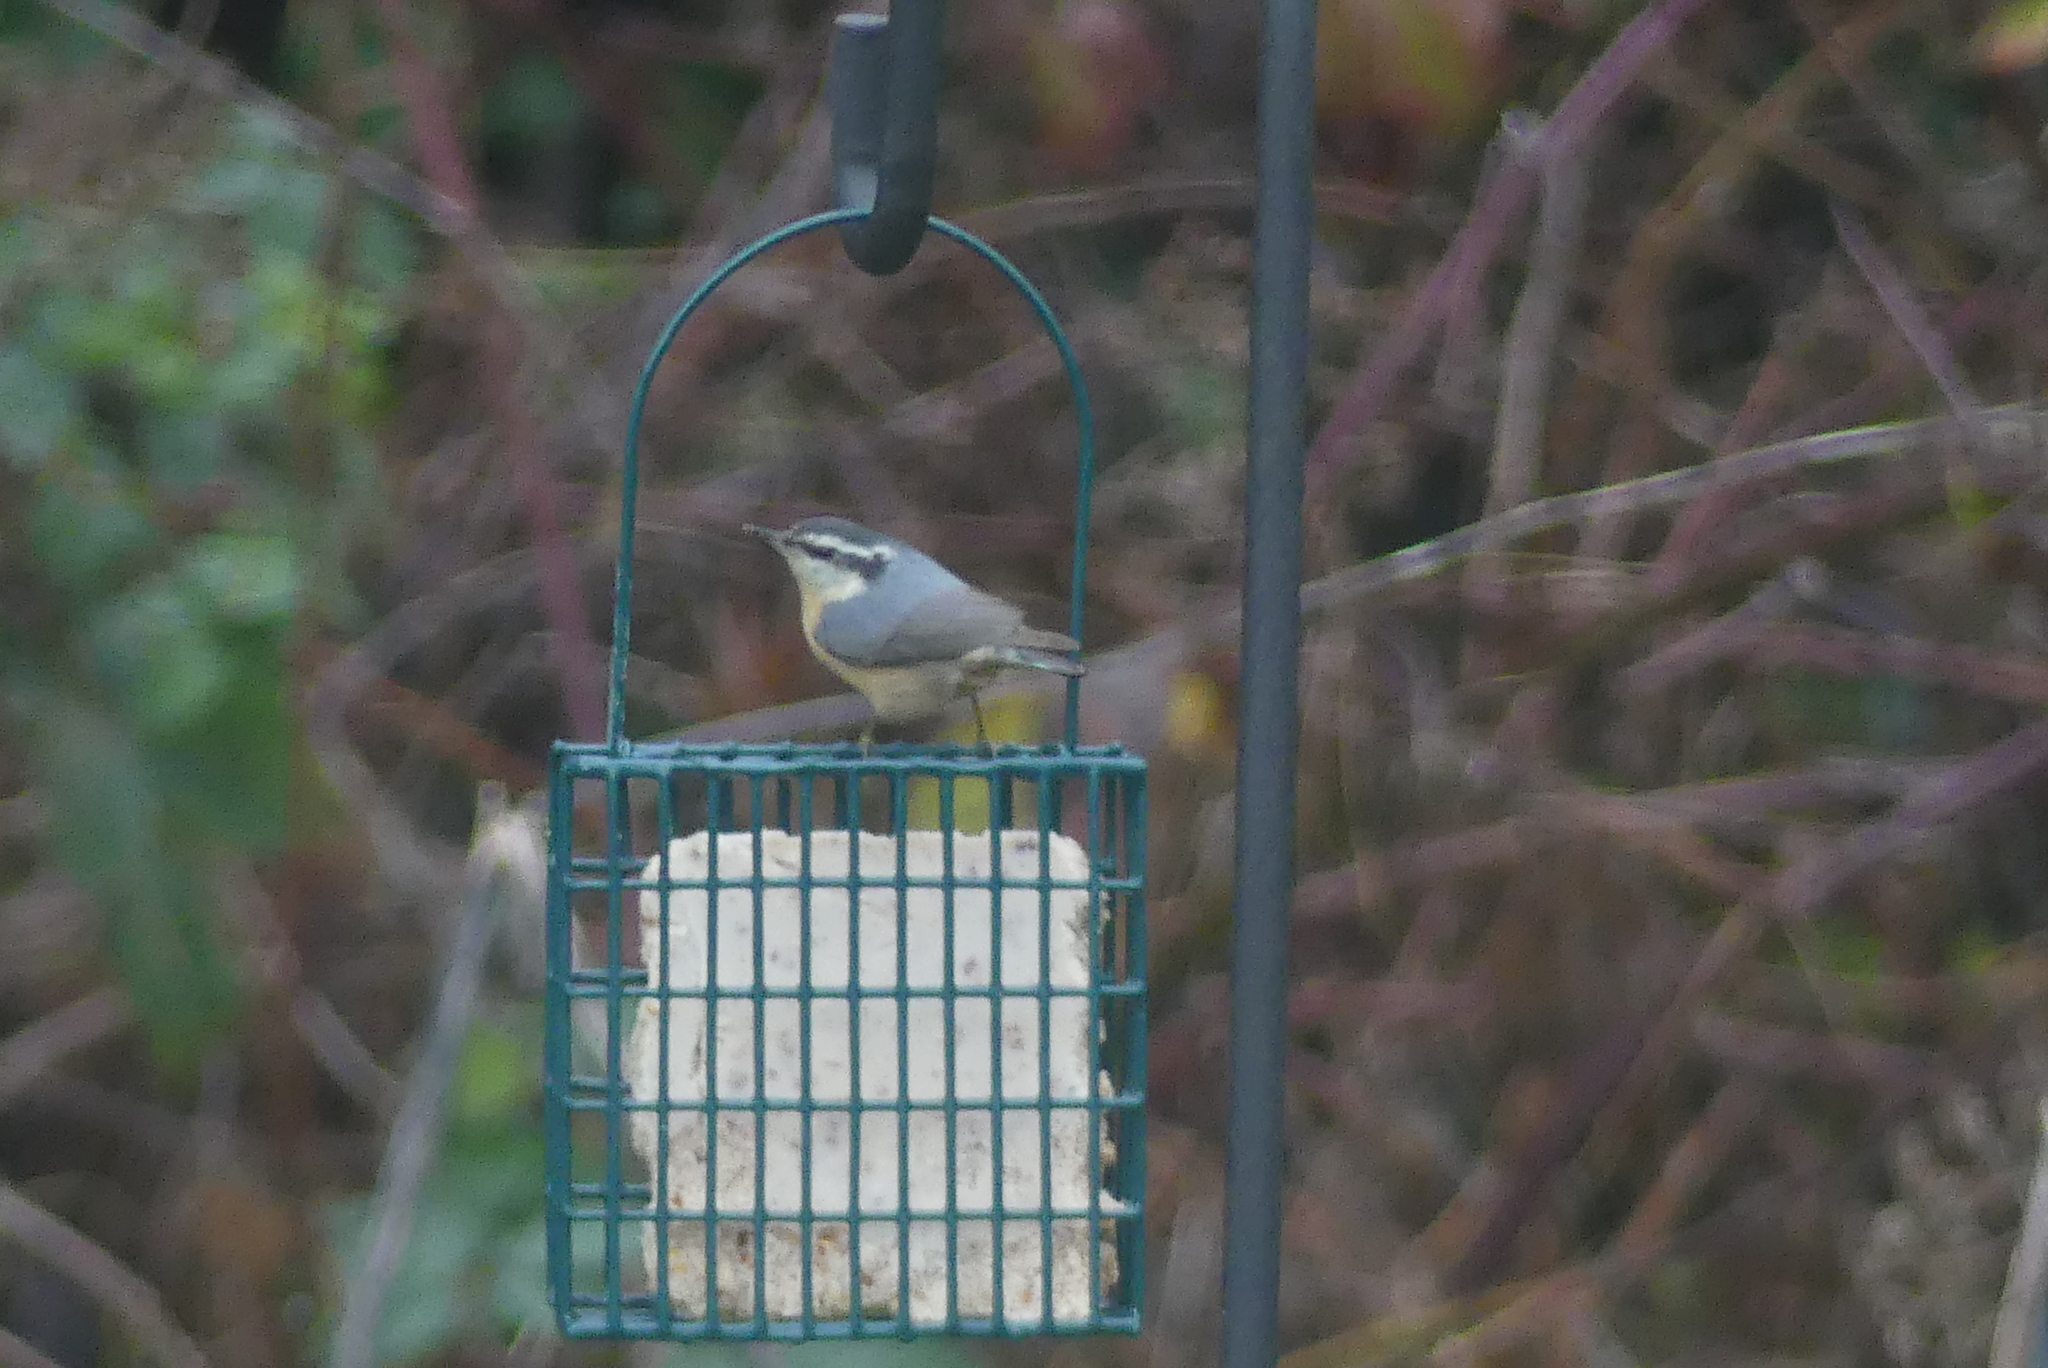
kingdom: Animalia
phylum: Chordata
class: Aves
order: Passeriformes
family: Sittidae
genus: Sitta
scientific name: Sitta canadensis
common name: Red-breasted nuthatch
